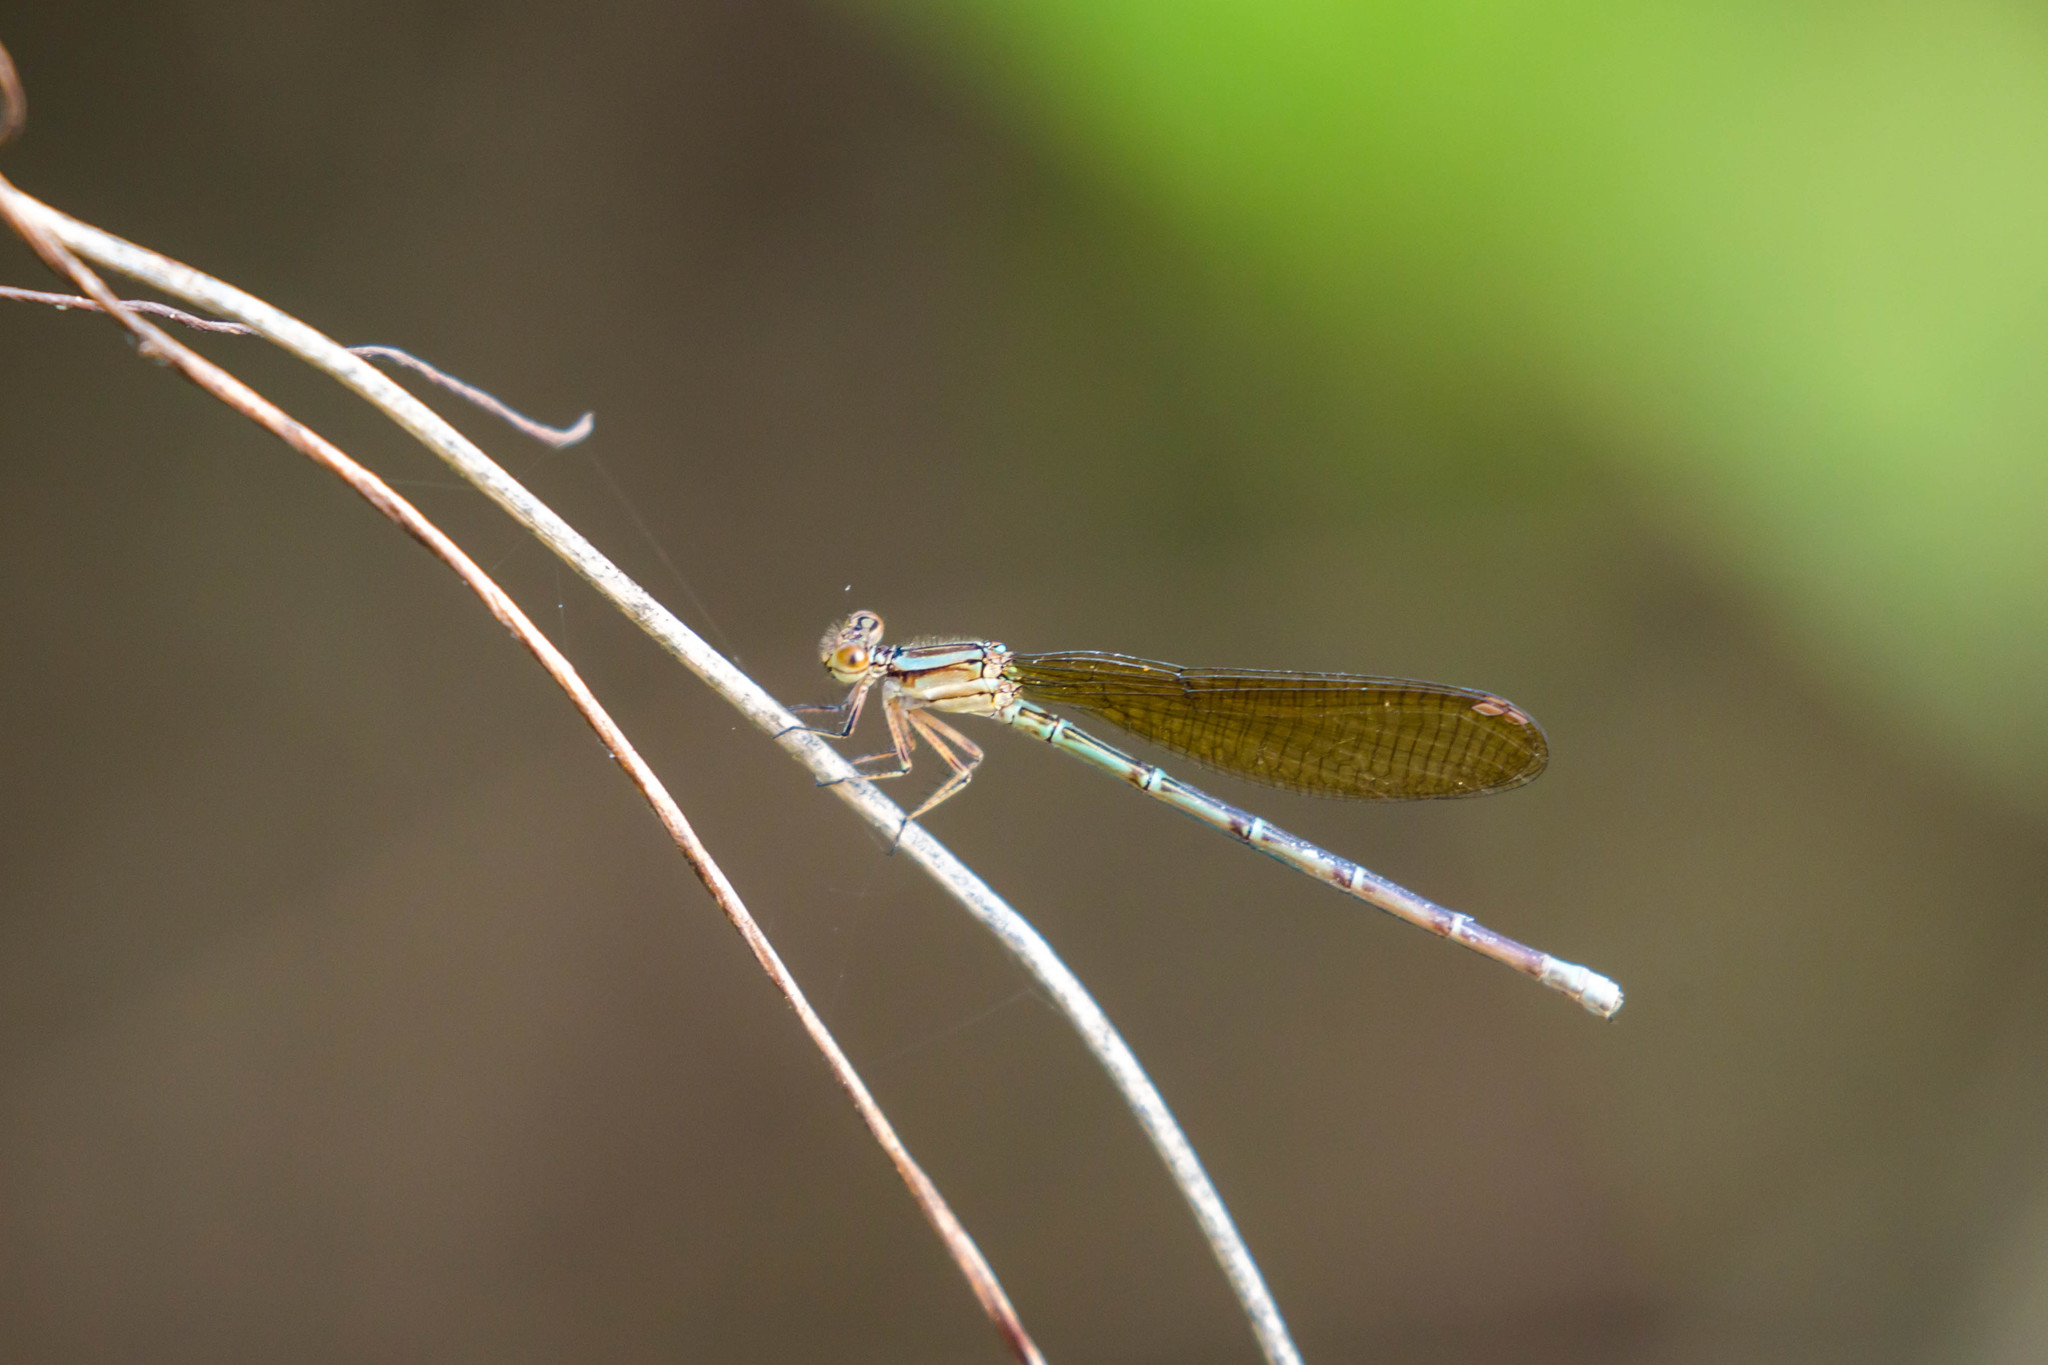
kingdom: Animalia
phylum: Arthropoda
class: Insecta
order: Odonata
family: Coenagrionidae
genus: Argia
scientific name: Argia rhoadsi
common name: Golden-winged dancer
